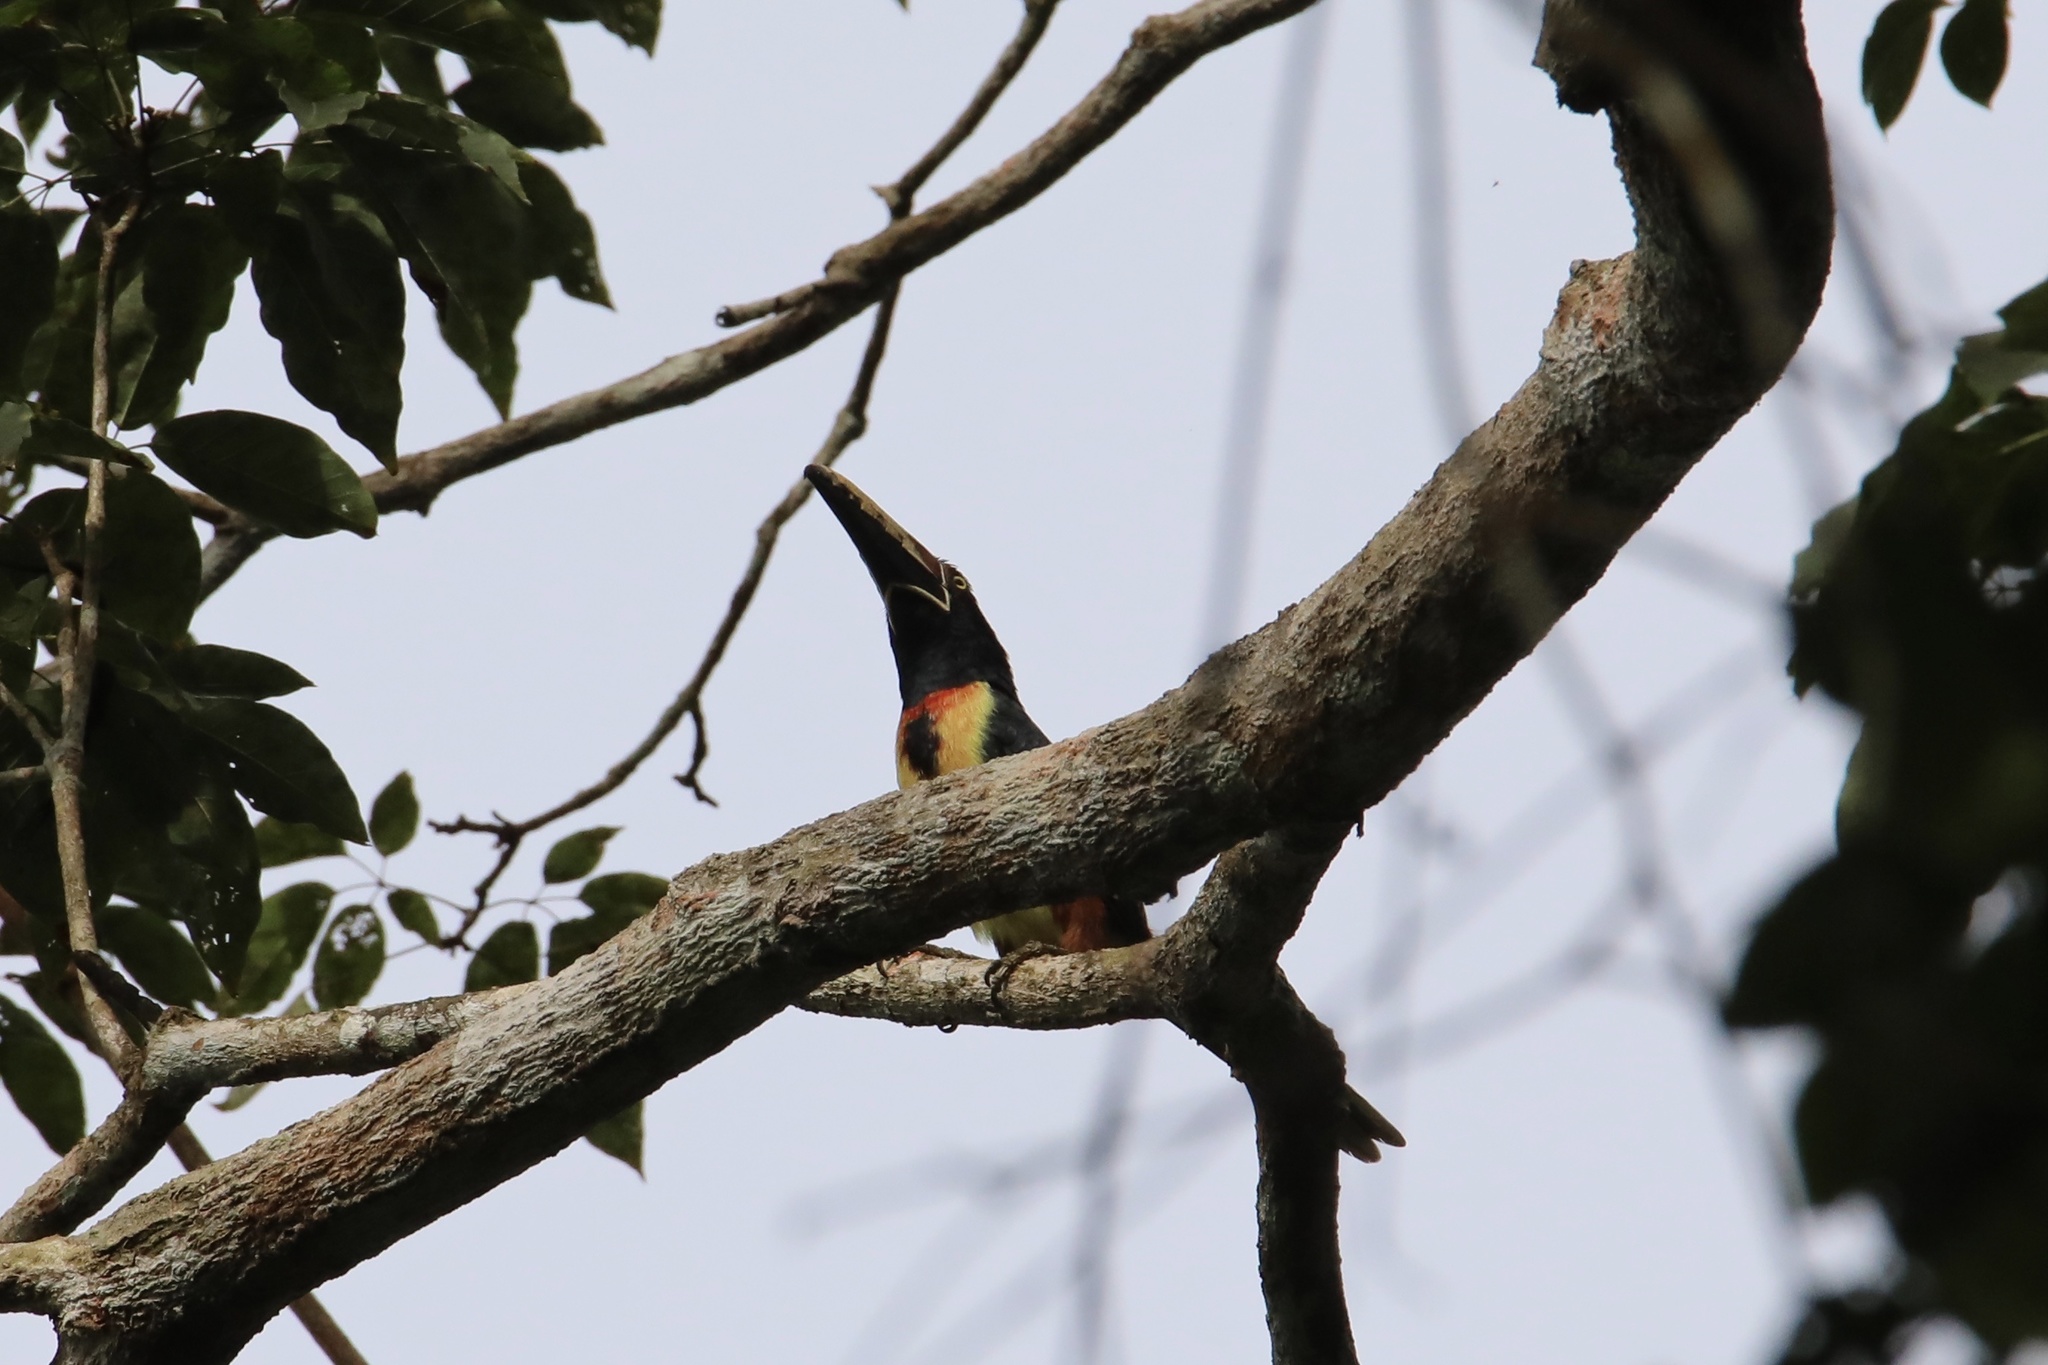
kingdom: Animalia
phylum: Chordata
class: Aves
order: Piciformes
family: Ramphastidae
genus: Pteroglossus
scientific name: Pteroglossus torquatus
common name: Collared aracari
